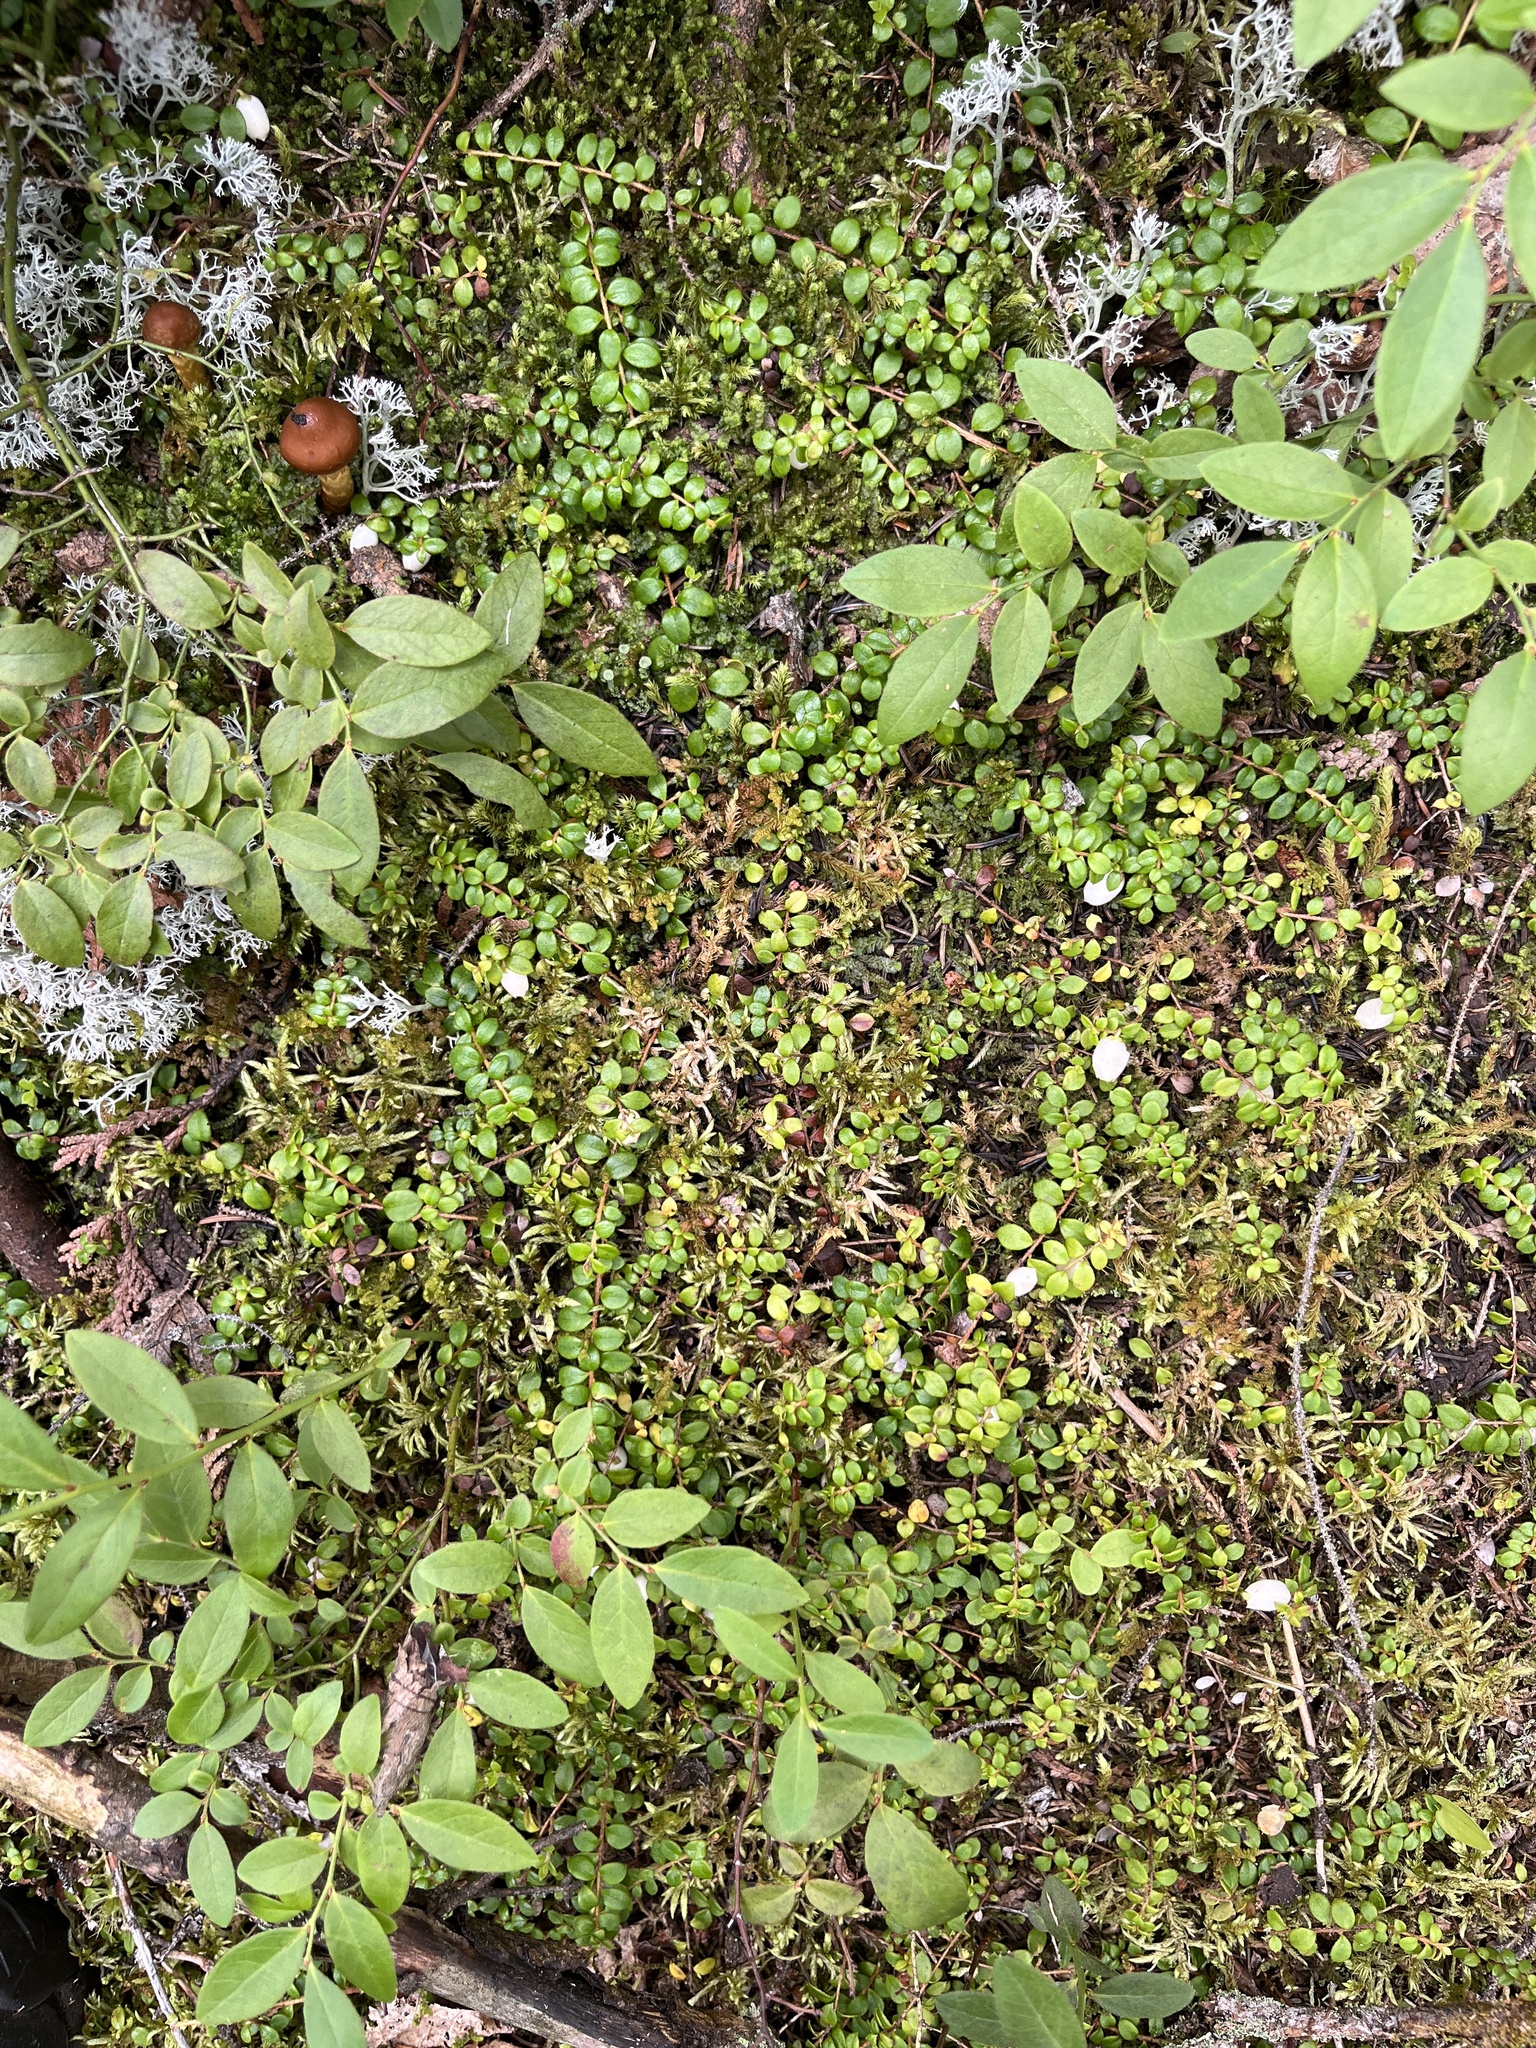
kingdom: Plantae
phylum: Tracheophyta
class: Magnoliopsida
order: Ericales
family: Ericaceae
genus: Gaultheria
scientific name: Gaultheria hispidula
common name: Cancer wintergreen
